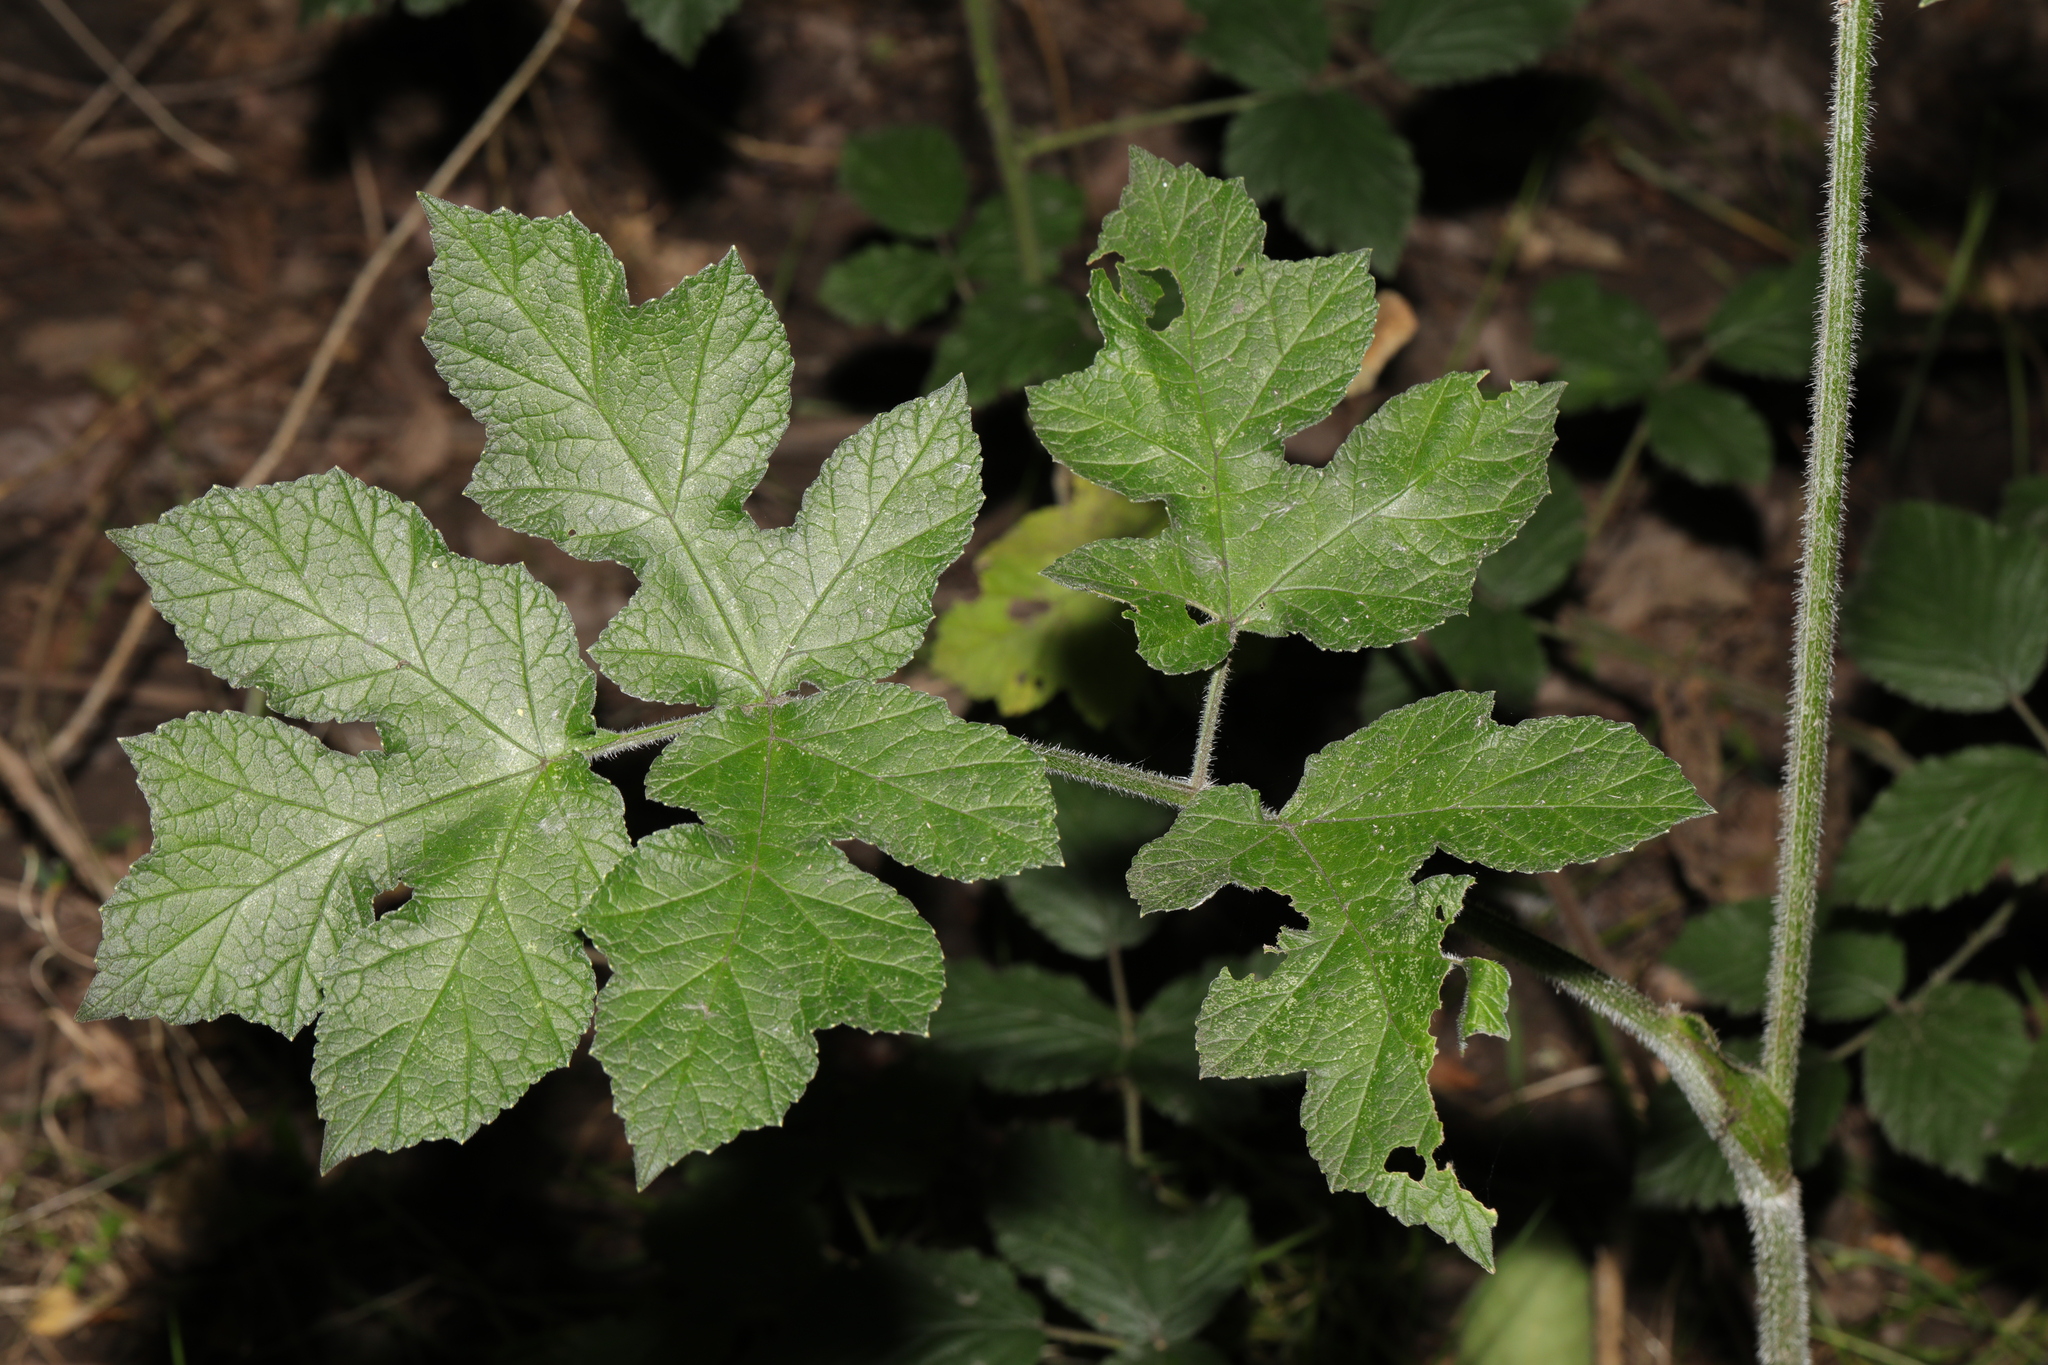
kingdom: Plantae
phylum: Tracheophyta
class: Magnoliopsida
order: Apiales
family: Apiaceae
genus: Heracleum
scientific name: Heracleum sphondylium
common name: Hogweed
